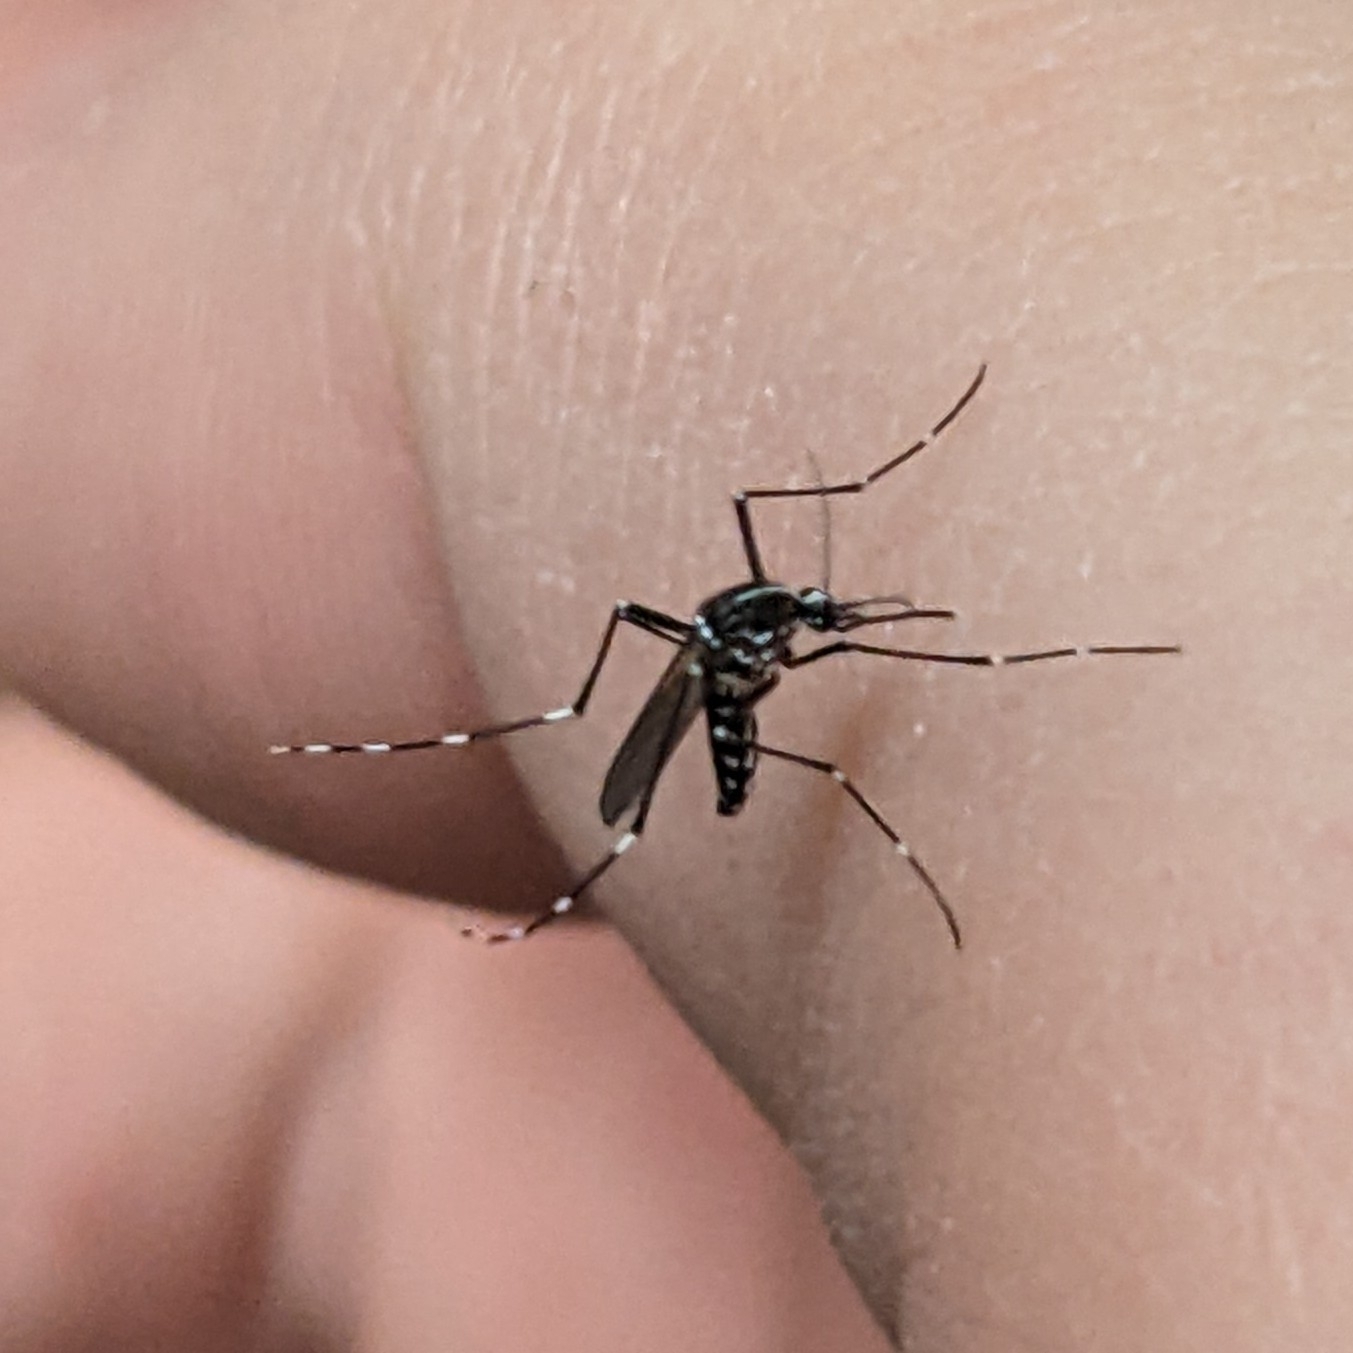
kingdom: Animalia
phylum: Arthropoda
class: Insecta
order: Diptera
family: Culicidae
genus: Aedes
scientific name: Aedes albopictus
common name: Tiger mosquito
